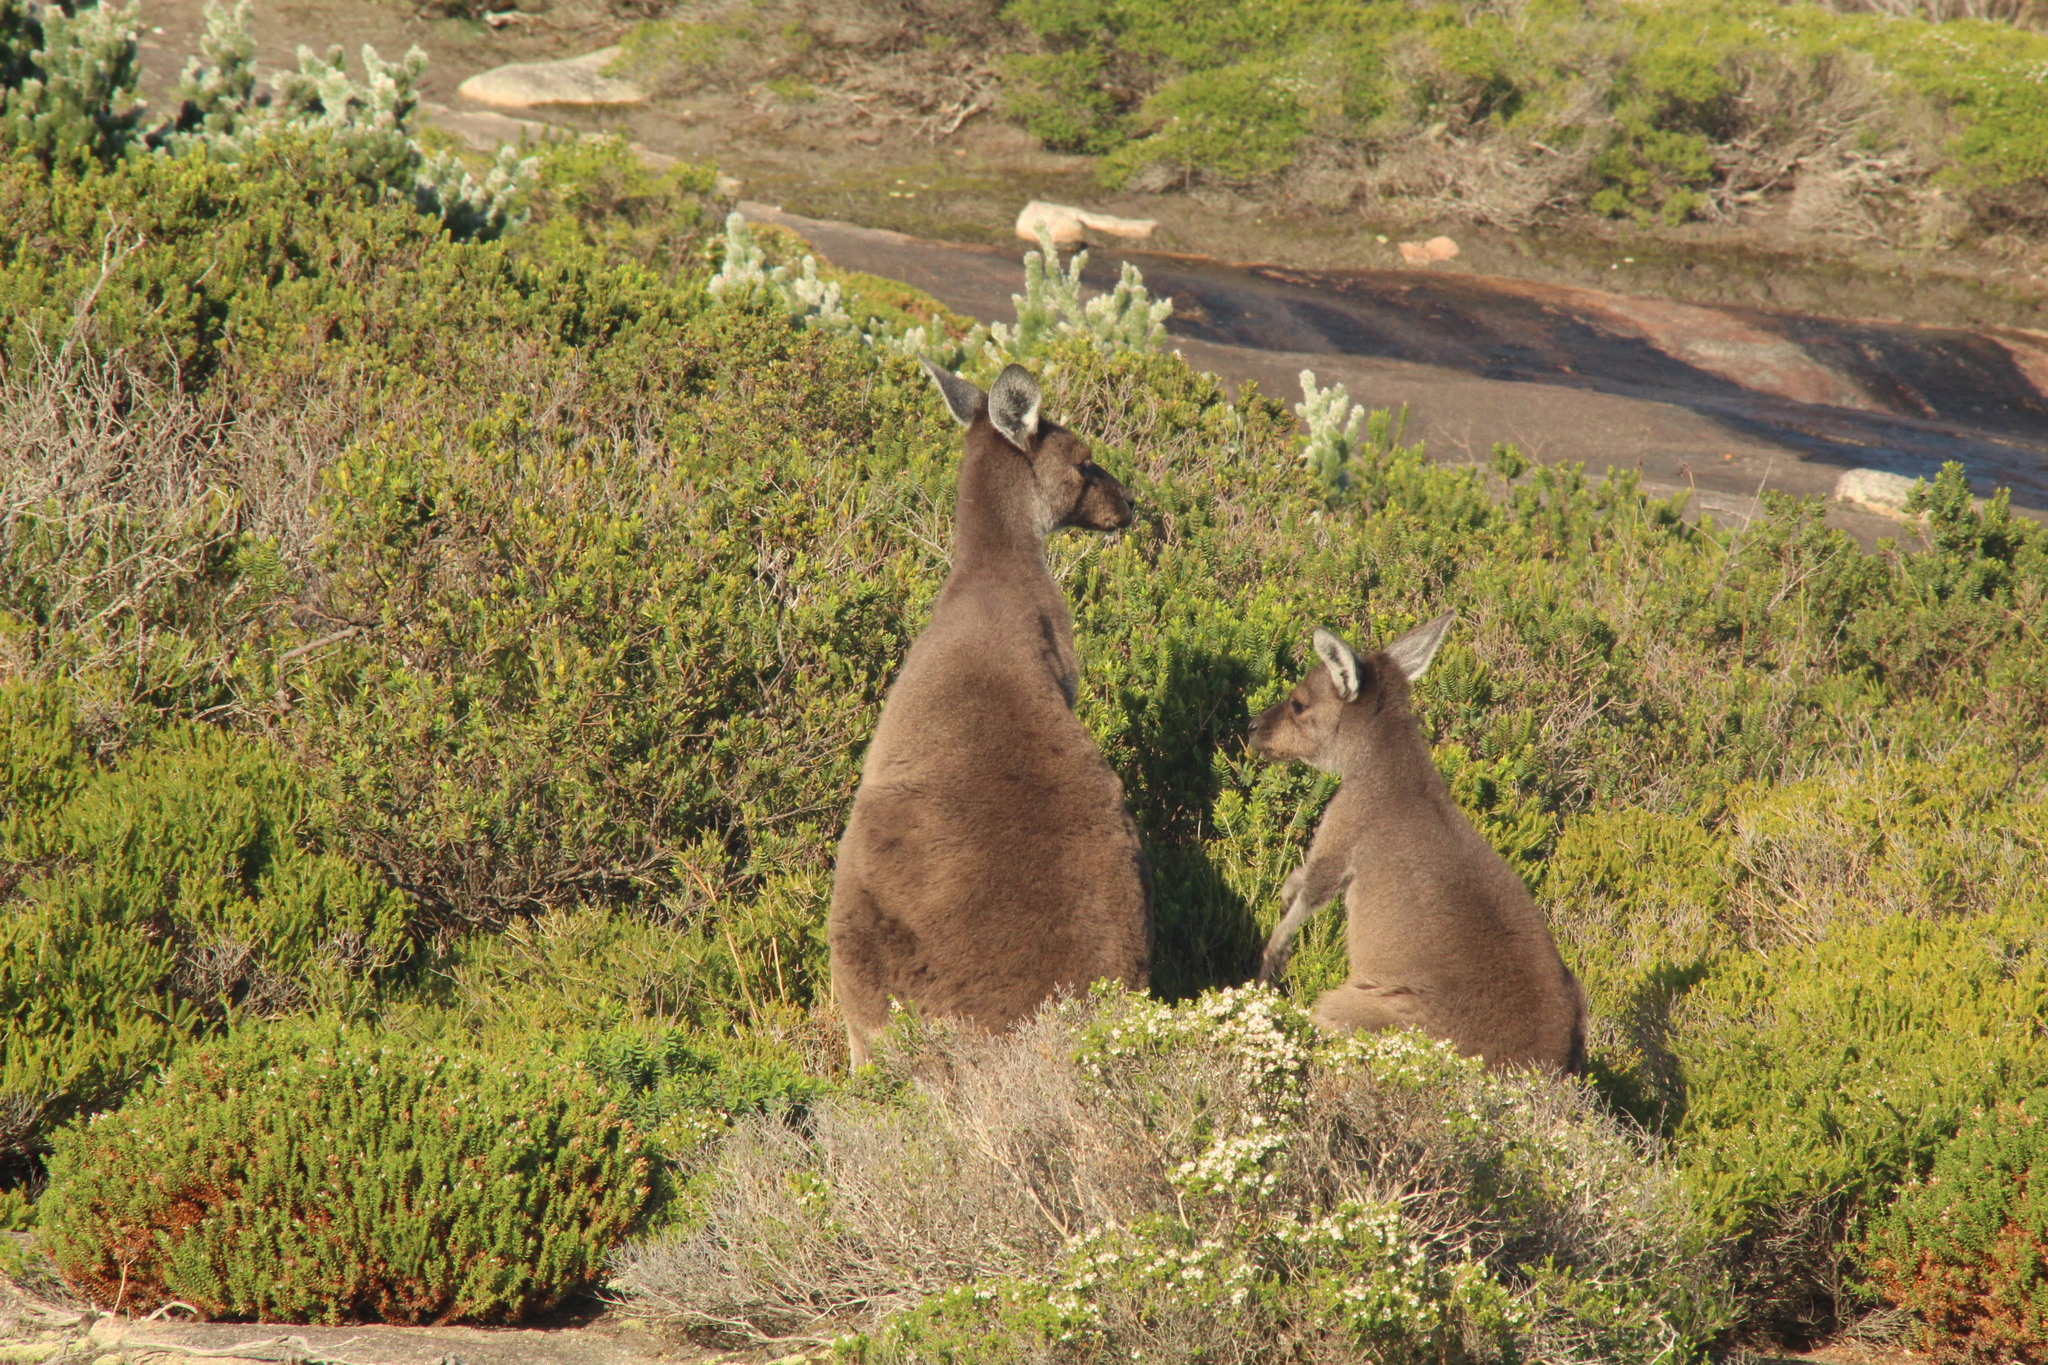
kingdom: Animalia
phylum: Chordata
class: Mammalia
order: Diprotodontia
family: Macropodidae
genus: Macropus
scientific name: Macropus fuliginosus
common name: Western grey kangaroo
